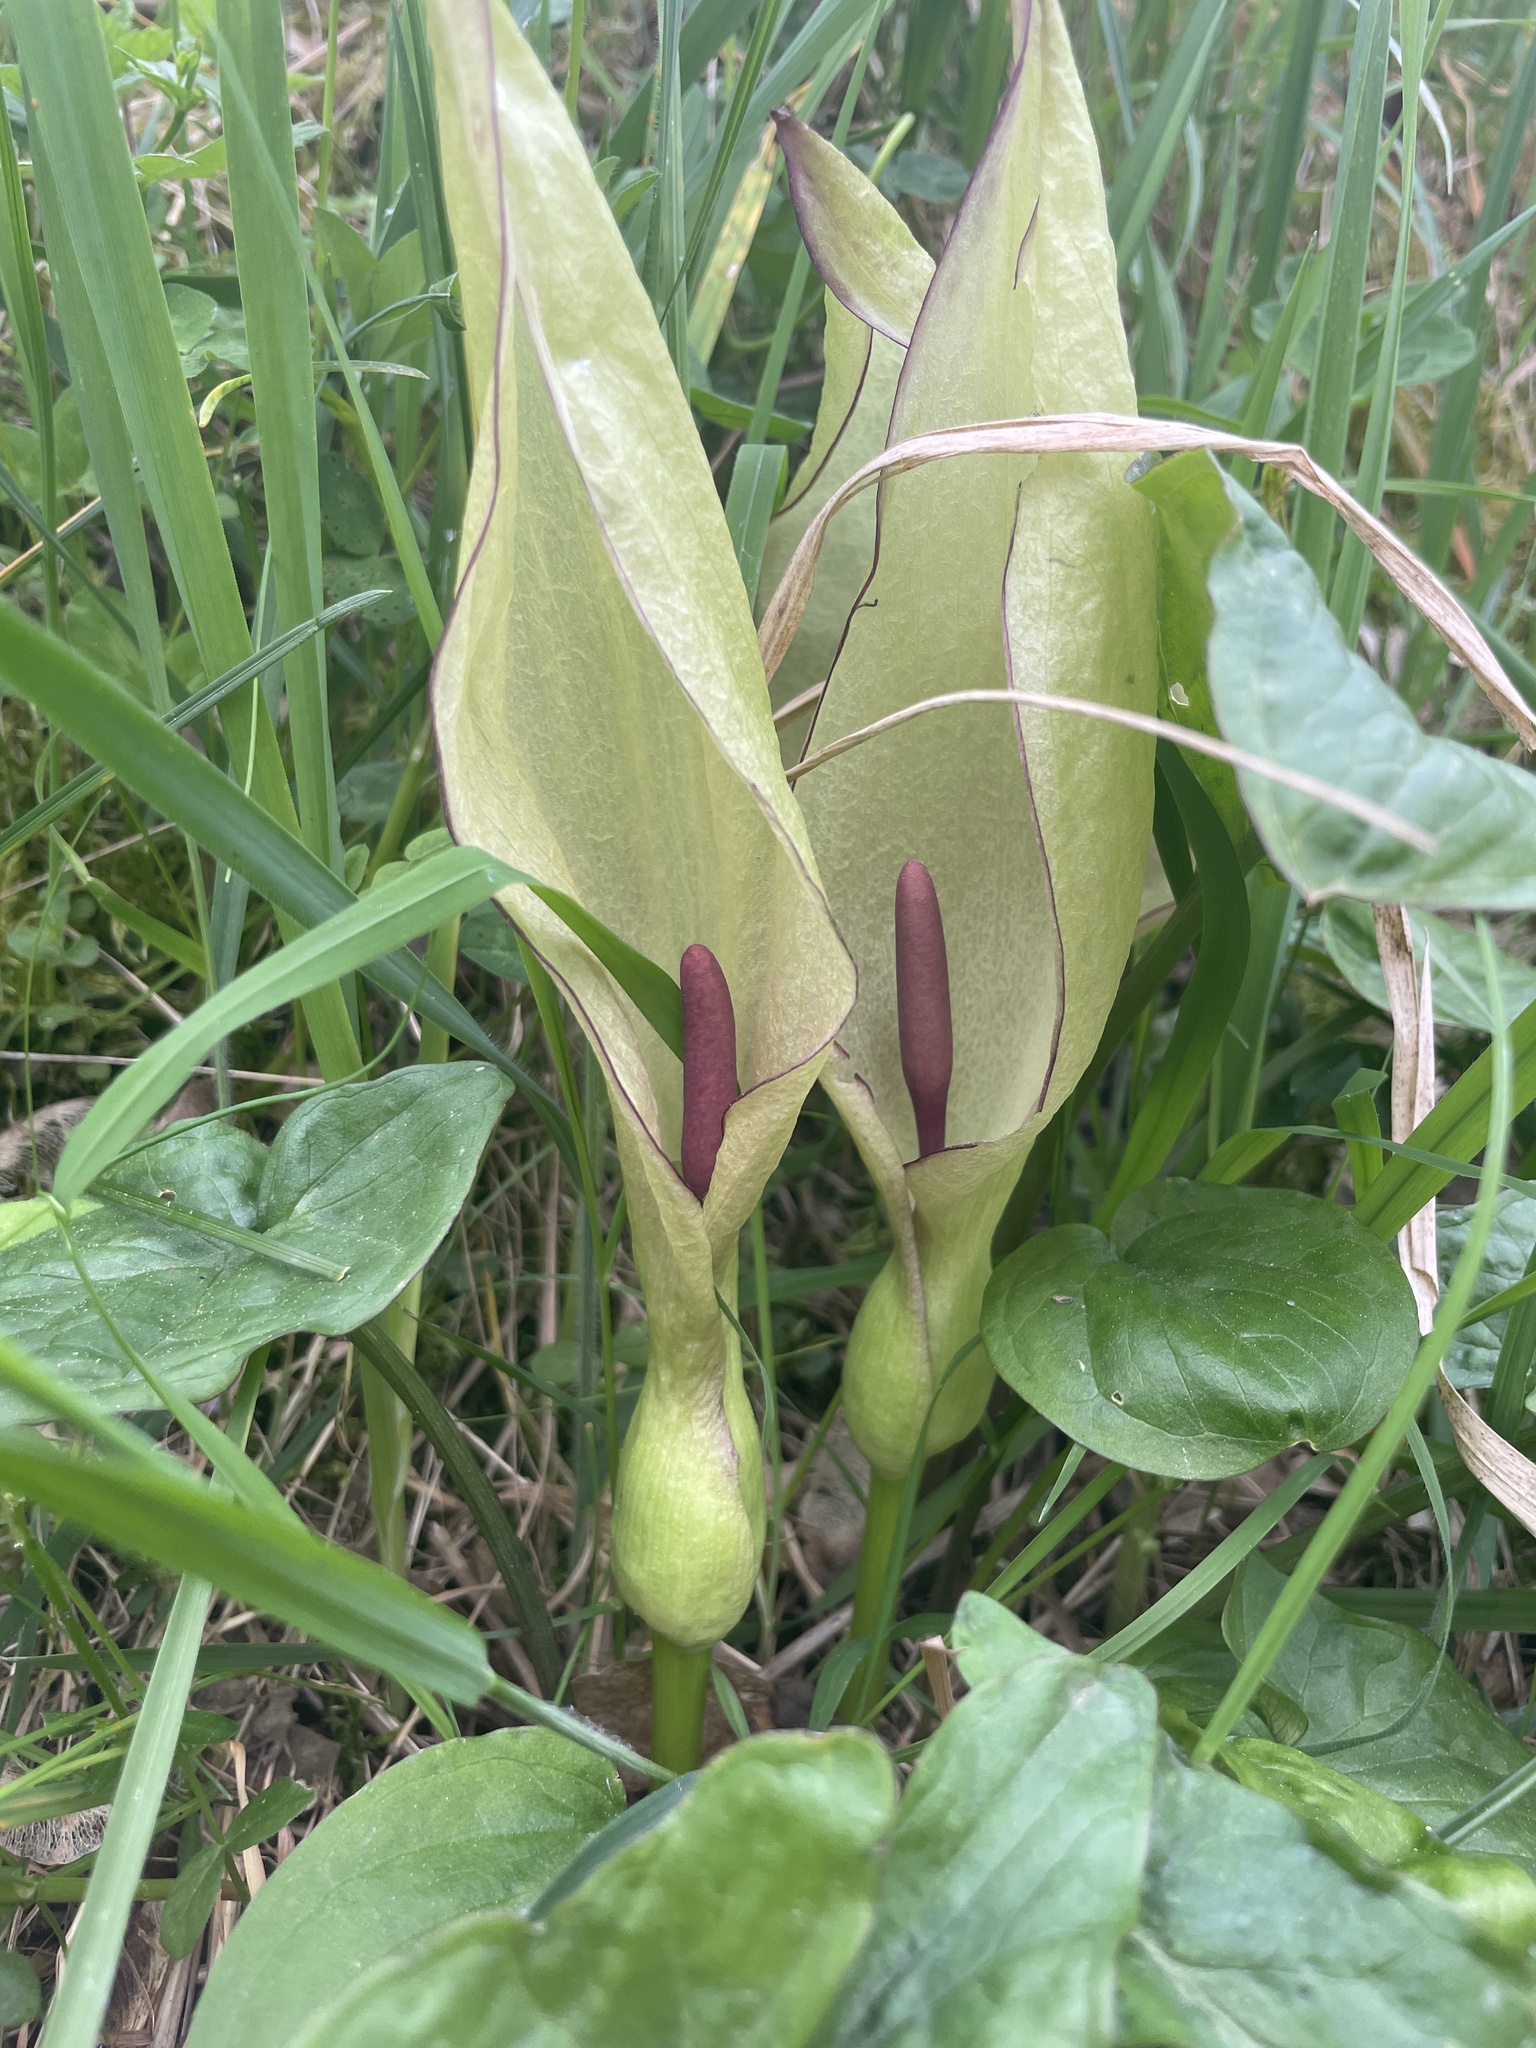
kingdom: Plantae
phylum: Tracheophyta
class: Liliopsida
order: Alismatales
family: Araceae
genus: Arum
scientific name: Arum maculatum
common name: Lords-and-ladies
